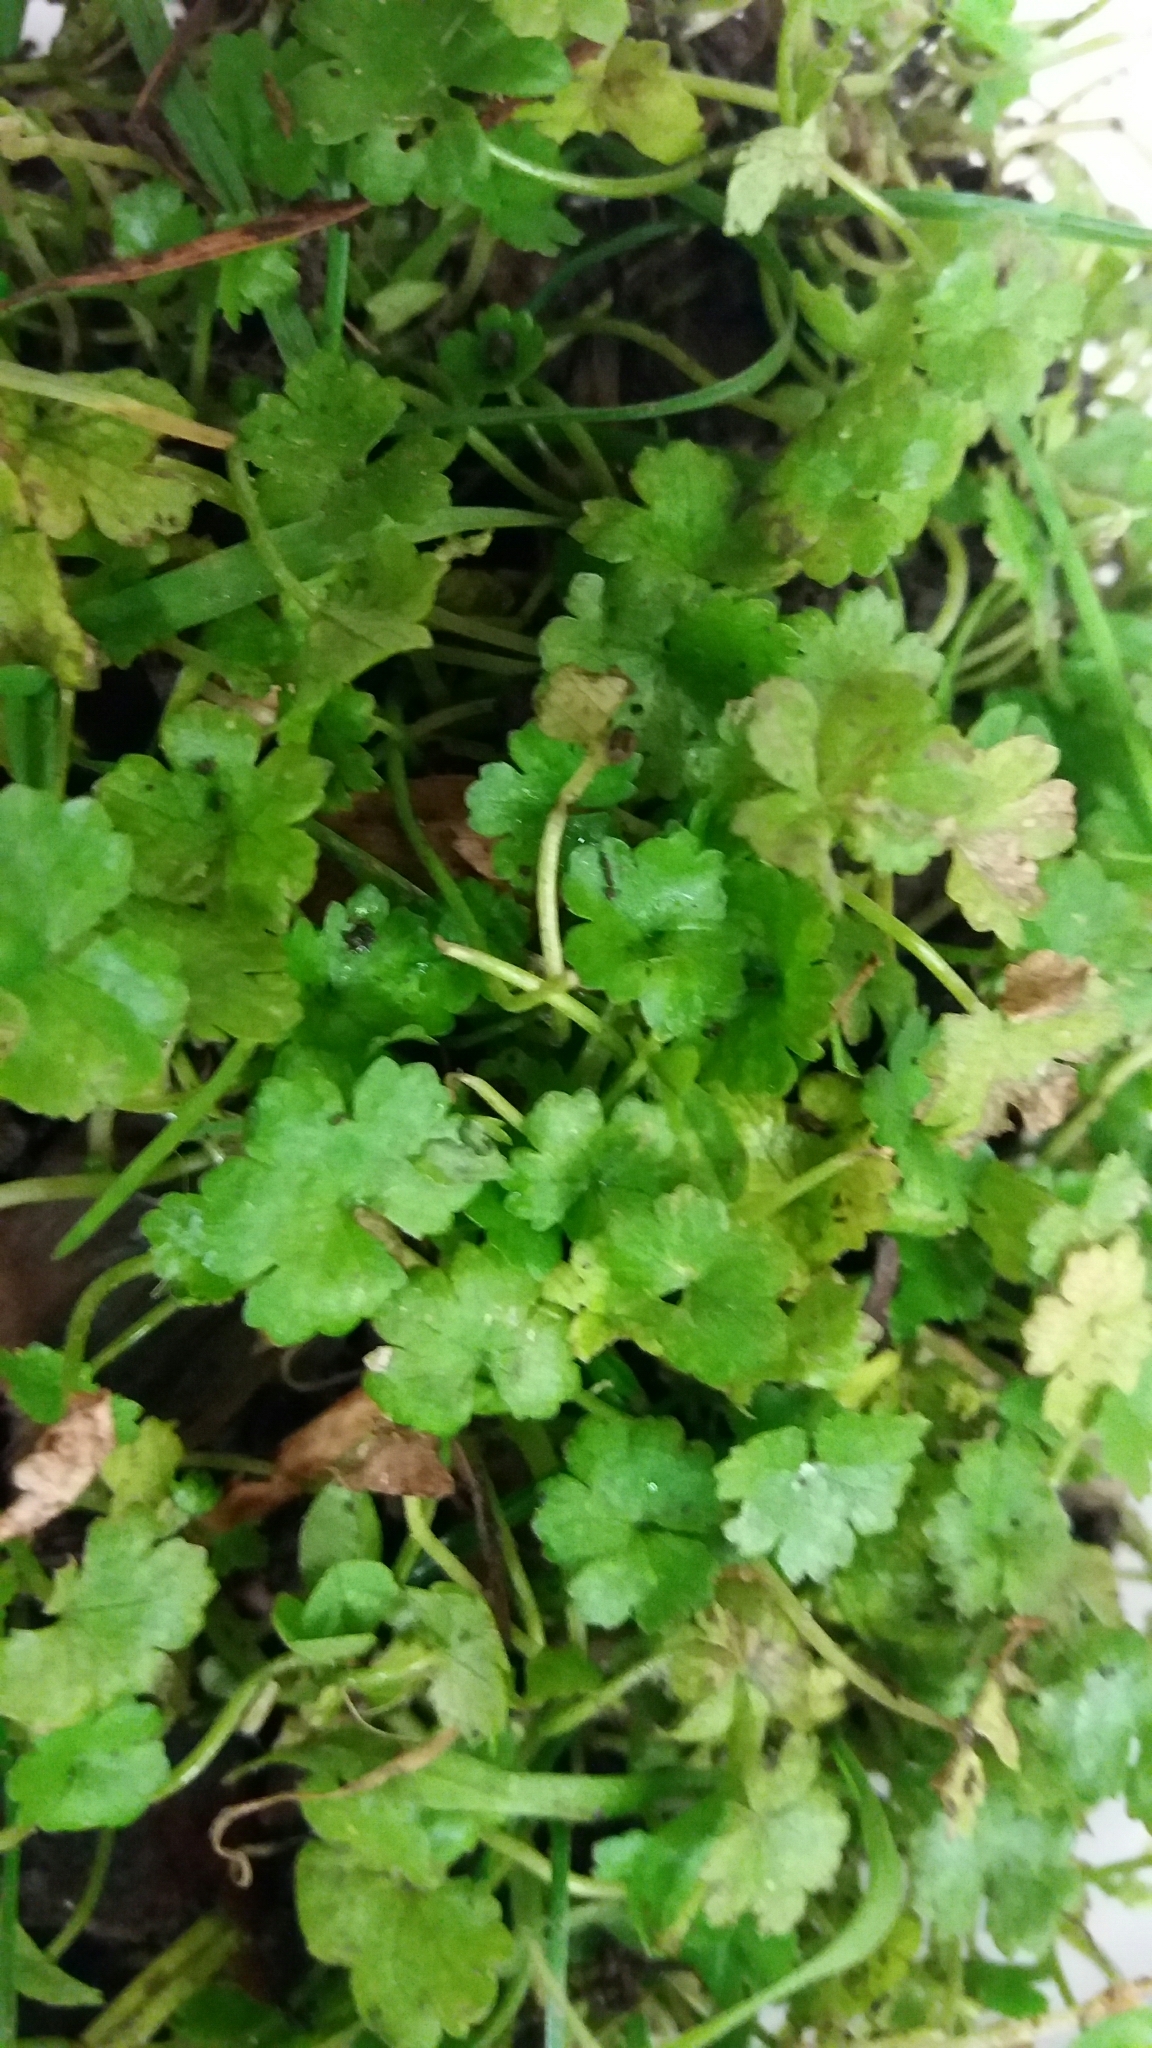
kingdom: Plantae
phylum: Tracheophyta
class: Magnoliopsida
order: Apiales
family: Araliaceae
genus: Hydrocotyle
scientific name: Hydrocotyle heteromeria
